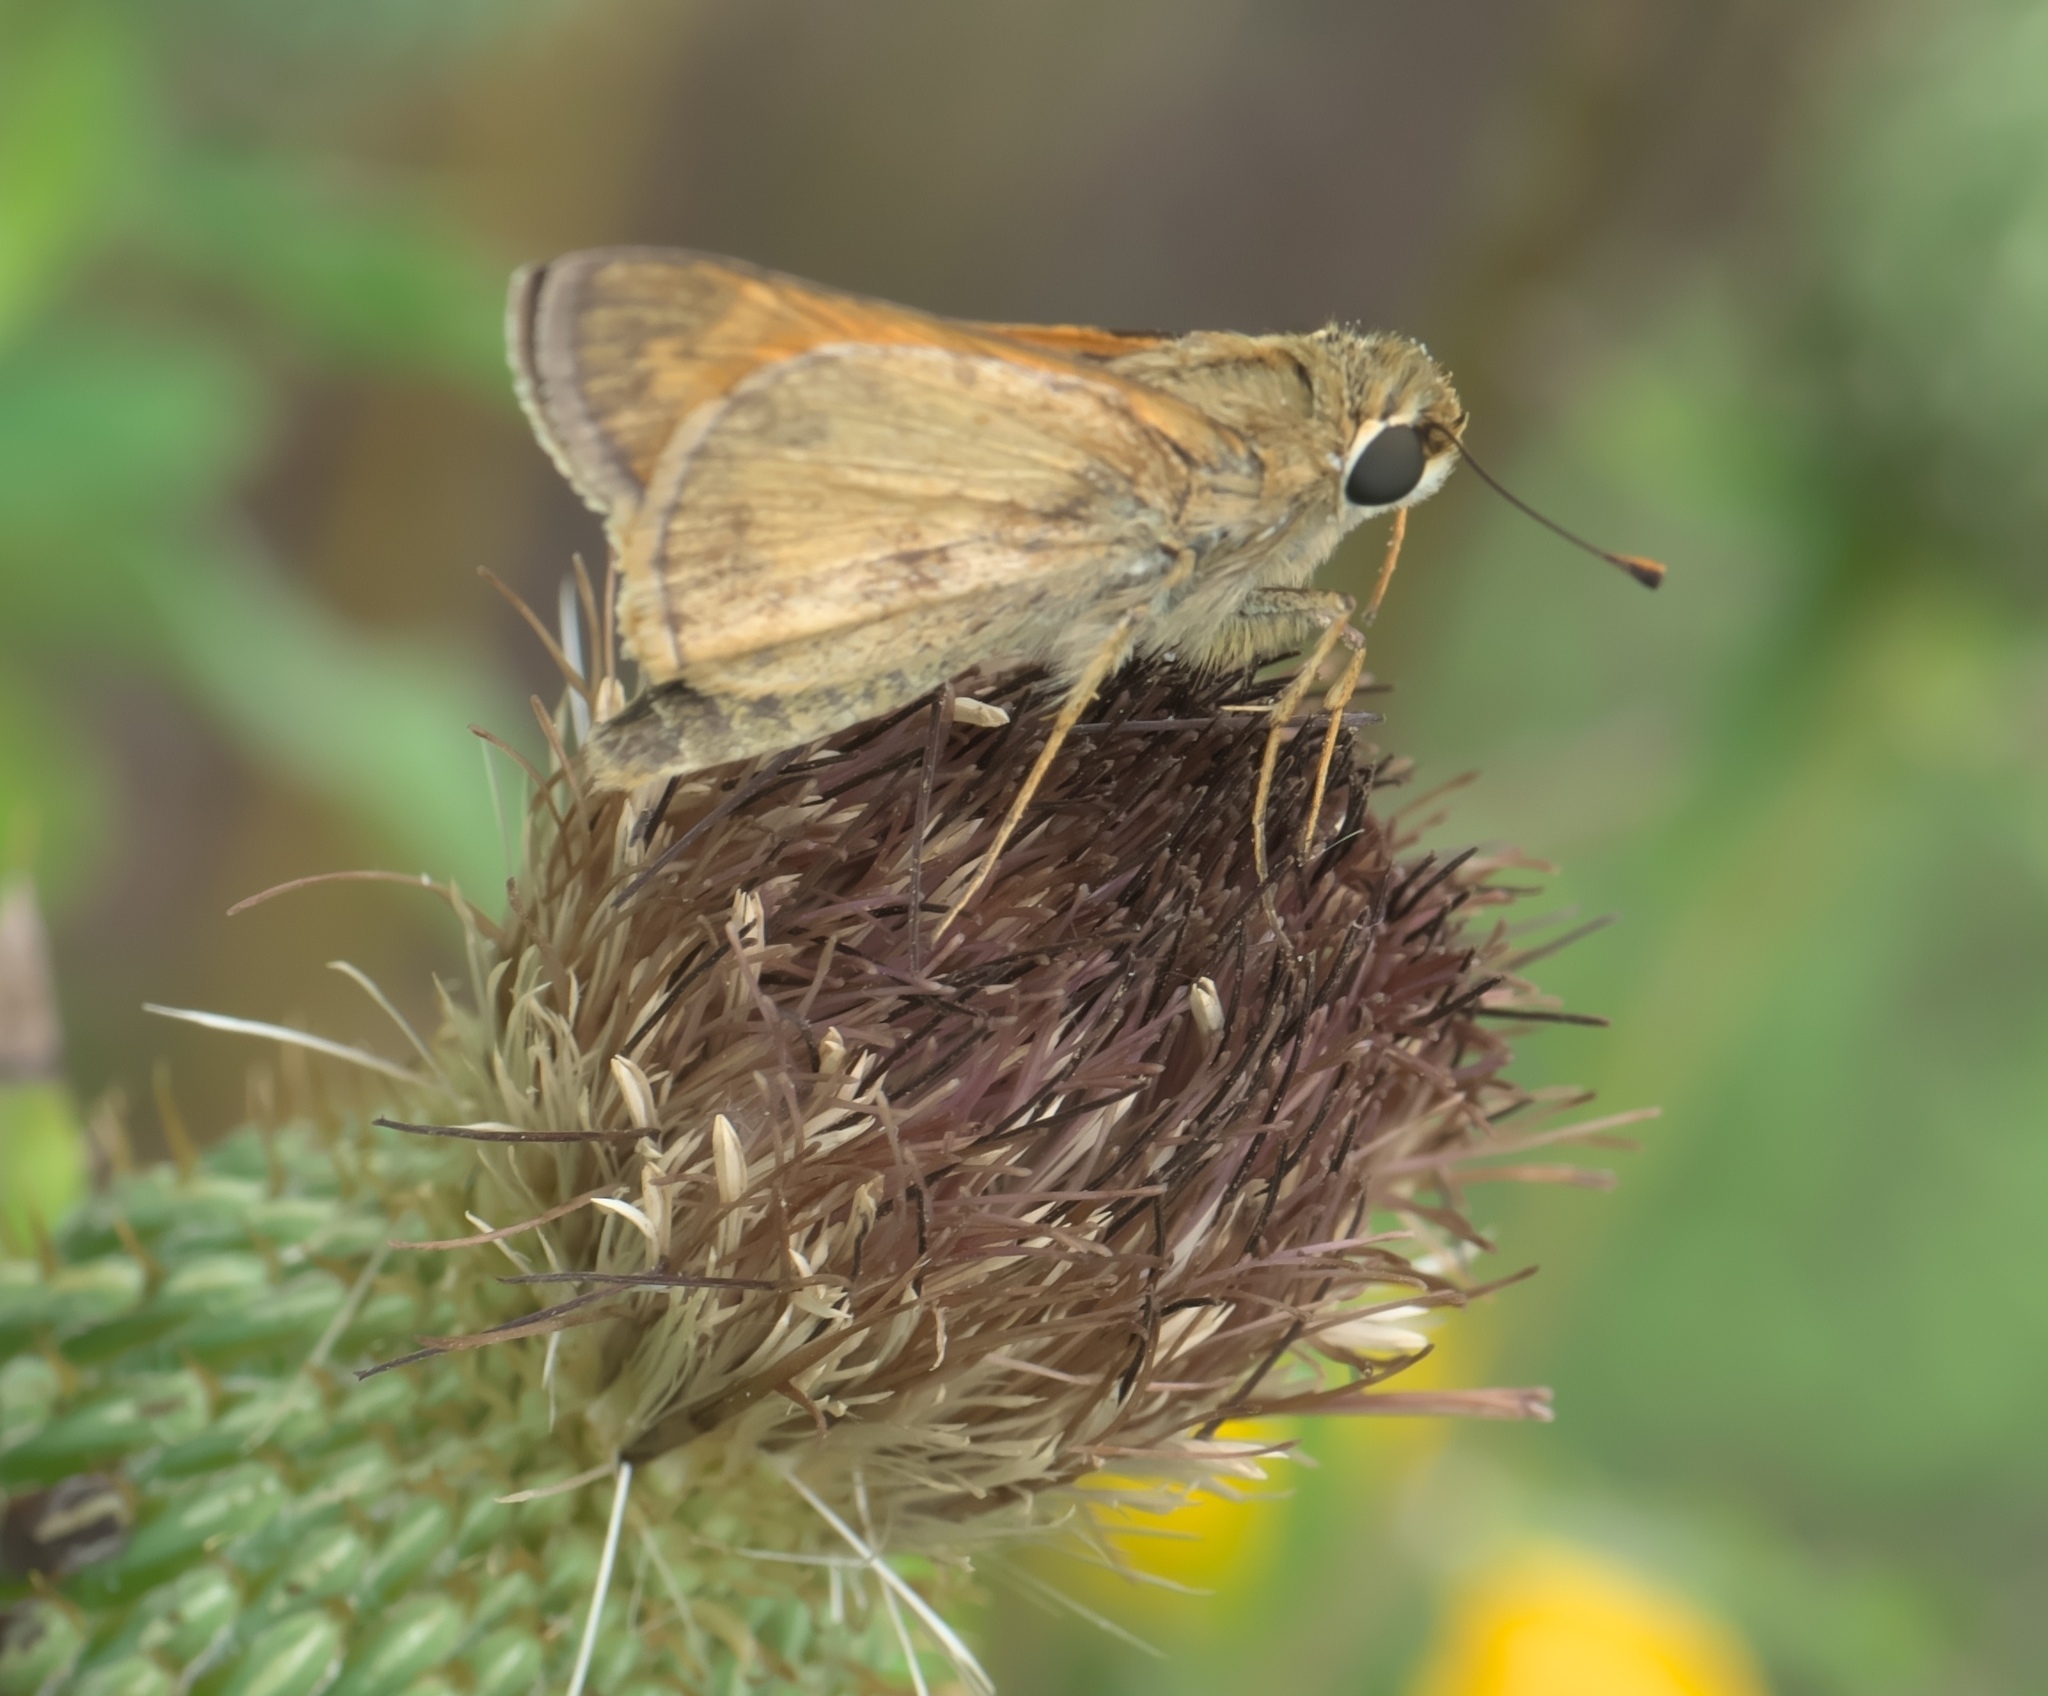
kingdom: Animalia
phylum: Arthropoda
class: Insecta
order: Lepidoptera
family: Hesperiidae
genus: Atalopedes
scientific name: Atalopedes
